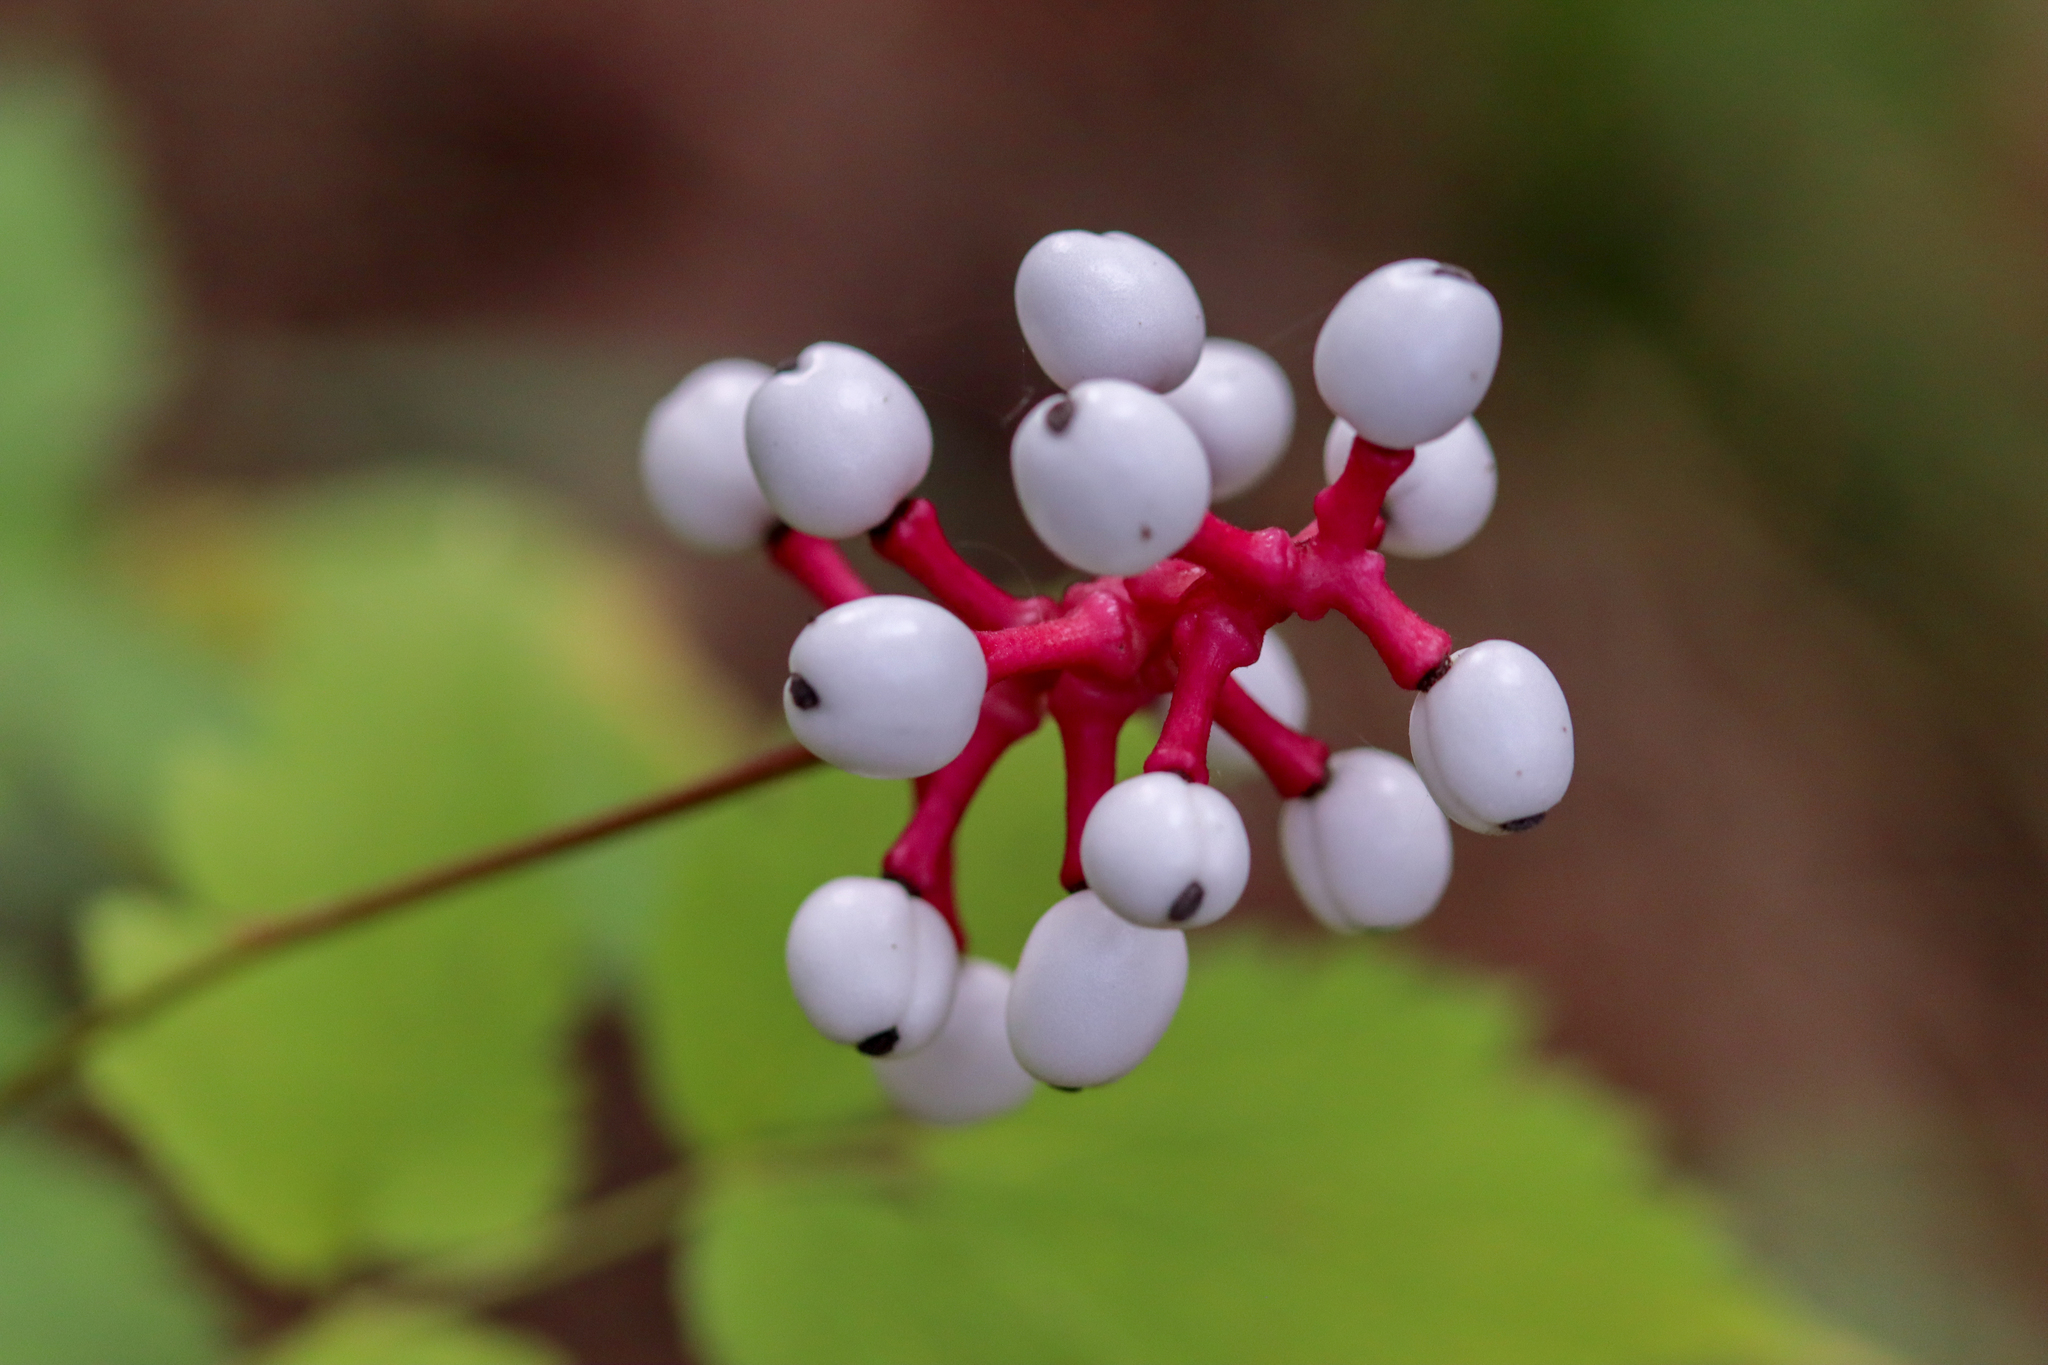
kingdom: Plantae
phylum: Tracheophyta
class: Magnoliopsida
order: Ranunculales
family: Ranunculaceae
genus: Actaea
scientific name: Actaea pachypoda
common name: Doll's-eyes
